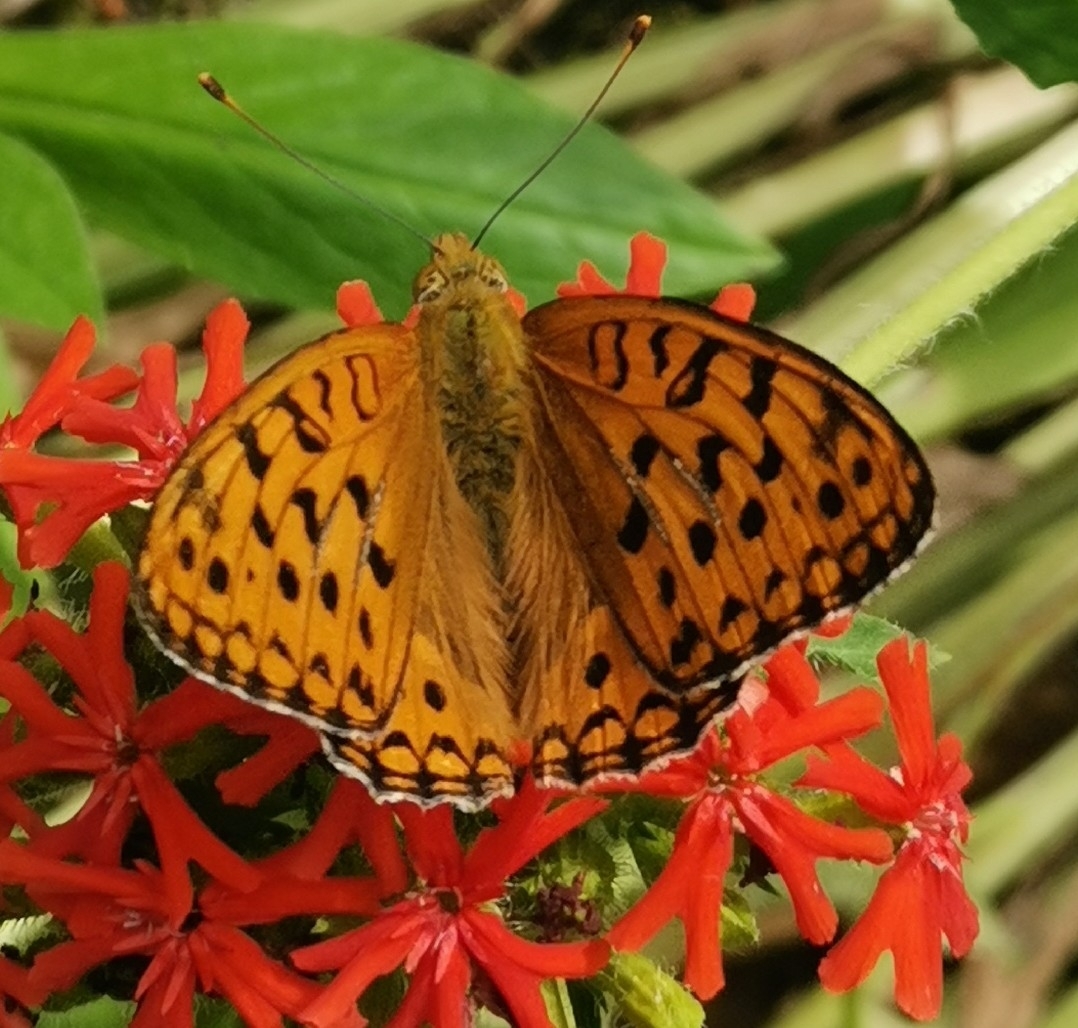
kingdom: Animalia
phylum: Arthropoda
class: Insecta
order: Lepidoptera
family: Nymphalidae
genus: Fabriciana
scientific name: Fabriciana adippe
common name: High brown fritillary
